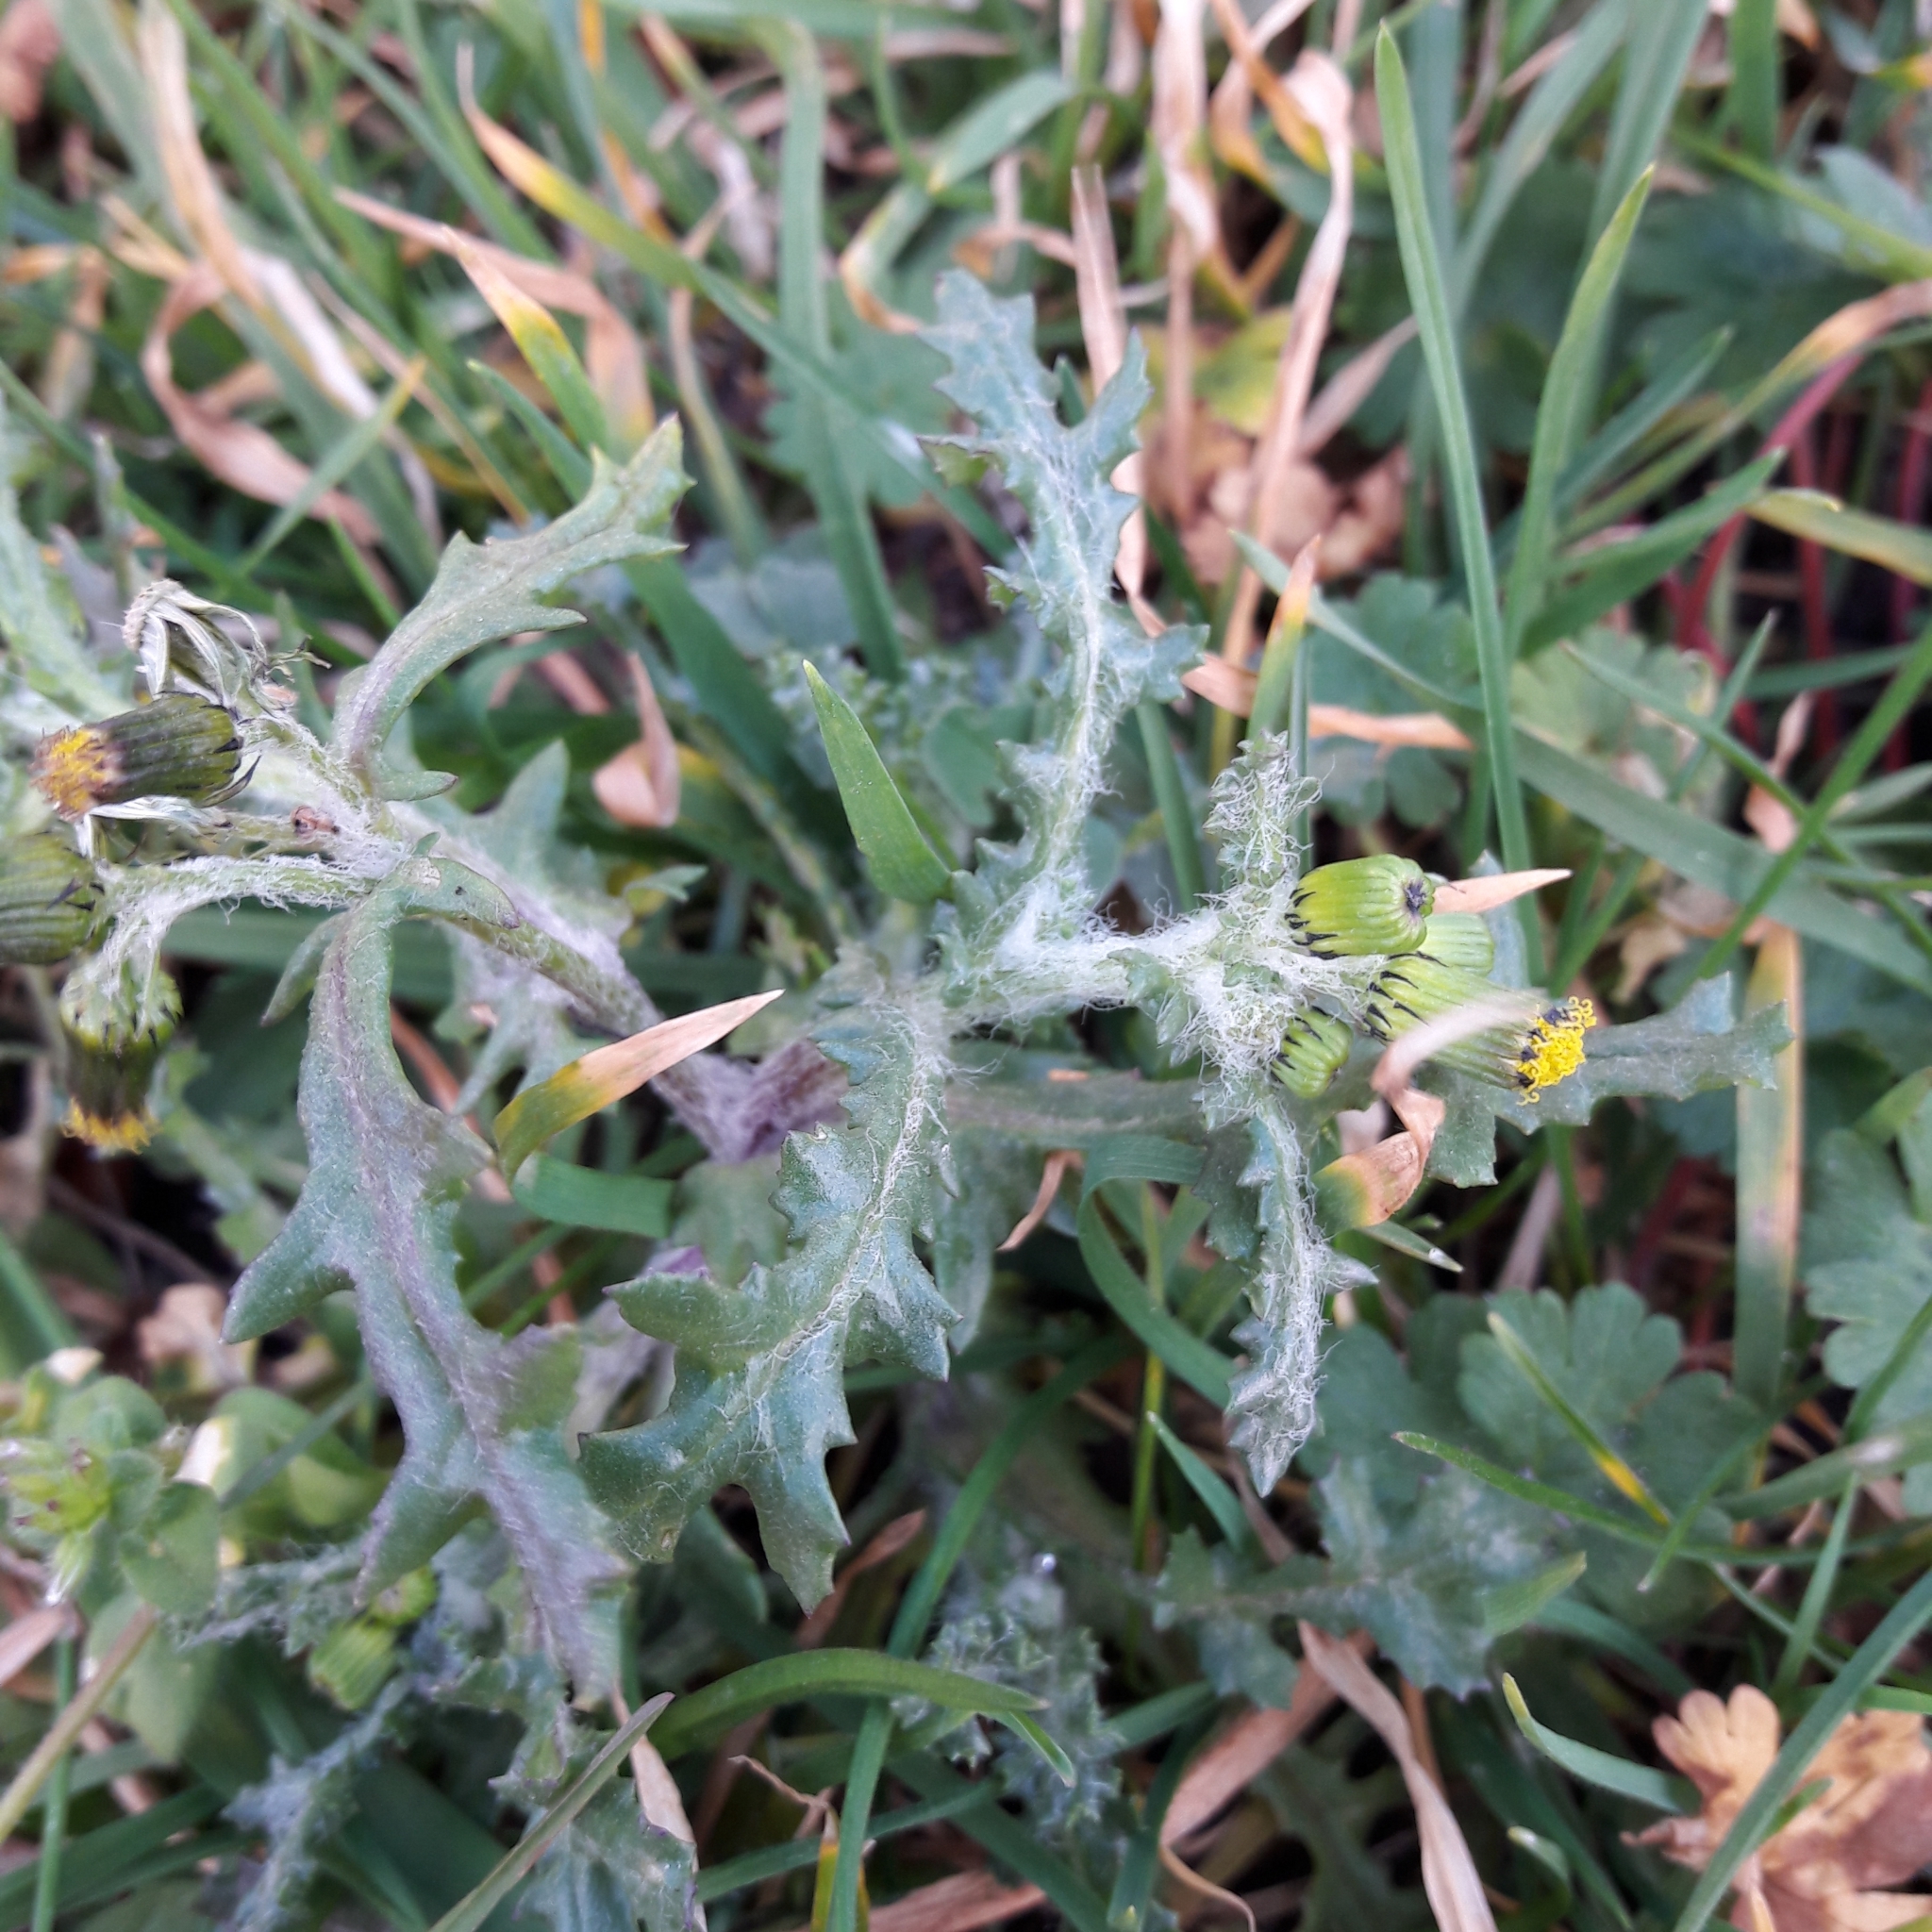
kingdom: Plantae
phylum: Tracheophyta
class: Magnoliopsida
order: Asterales
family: Asteraceae
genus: Senecio
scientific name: Senecio vulgaris
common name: Old-man-in-the-spring
